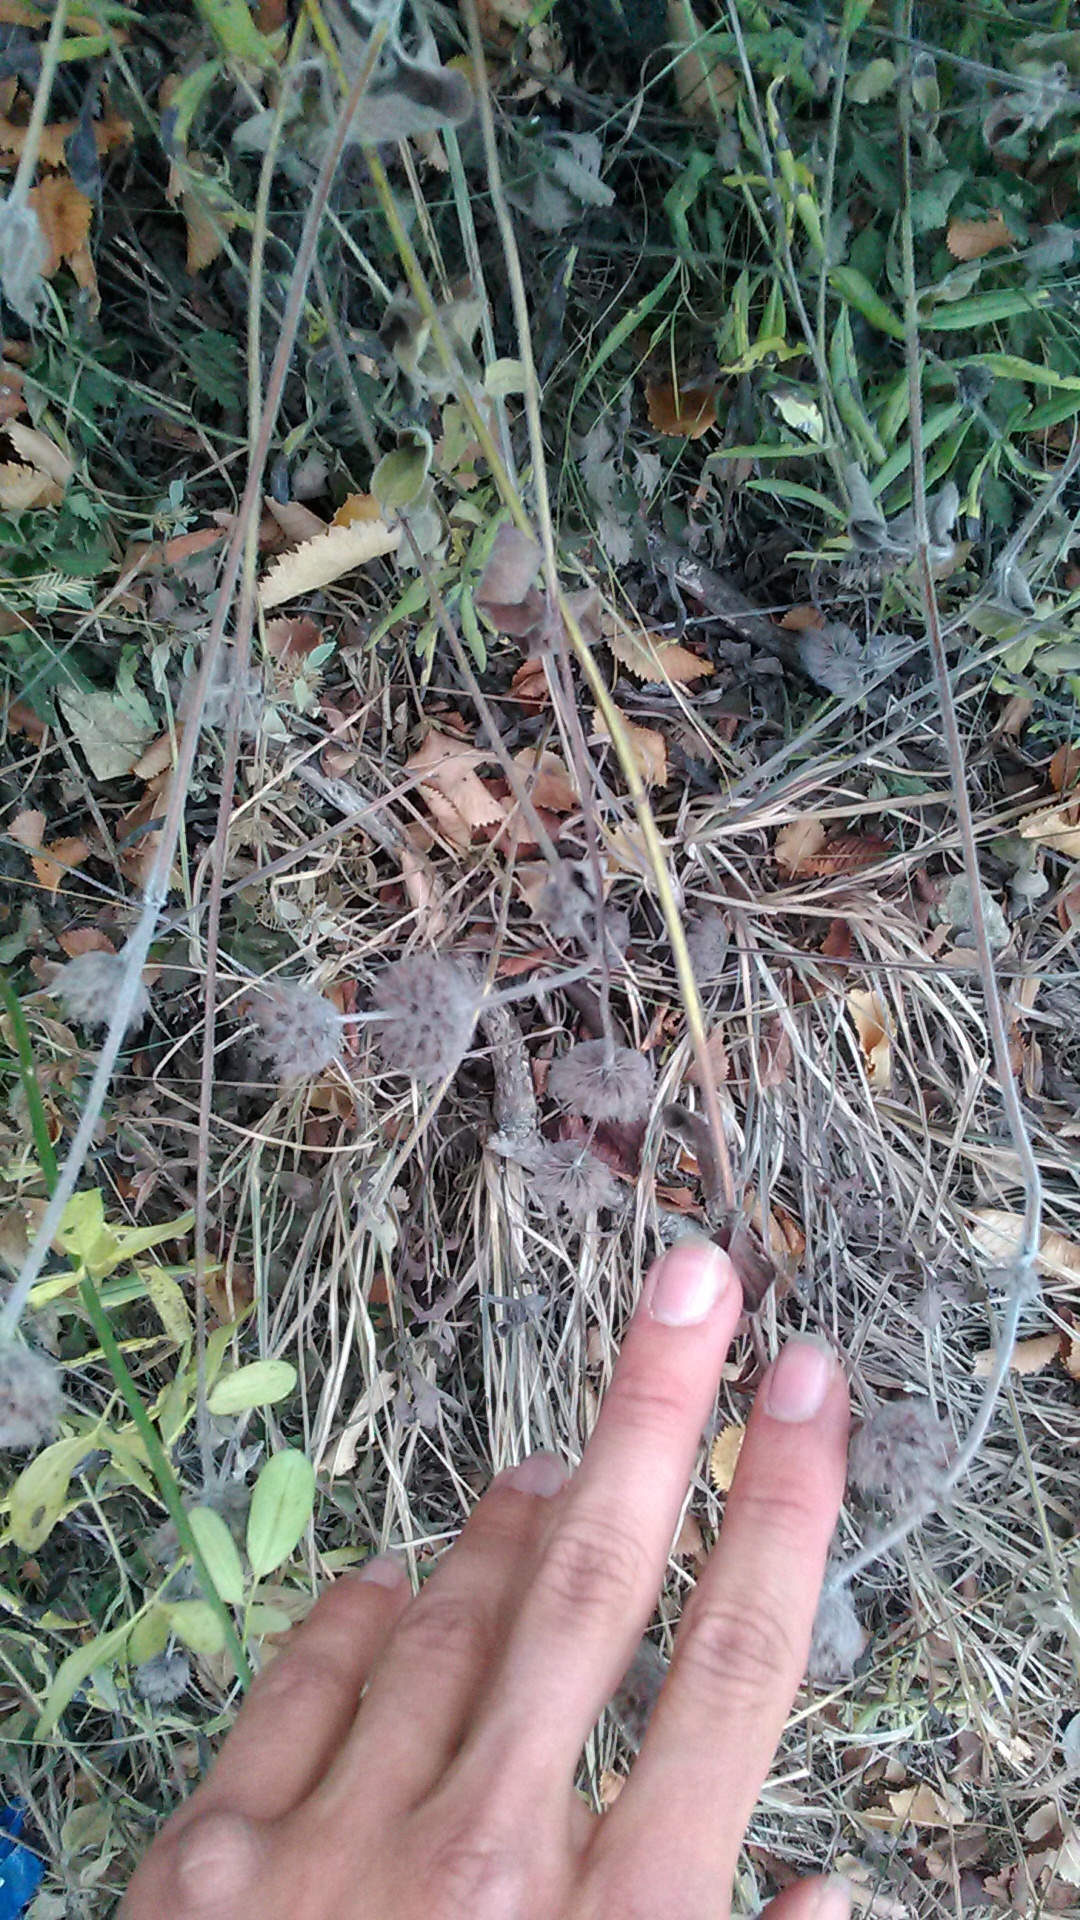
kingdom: Plantae
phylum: Tracheophyta
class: Magnoliopsida
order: Lamiales
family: Lamiaceae
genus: Clinopodium
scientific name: Clinopodium caucasicum
